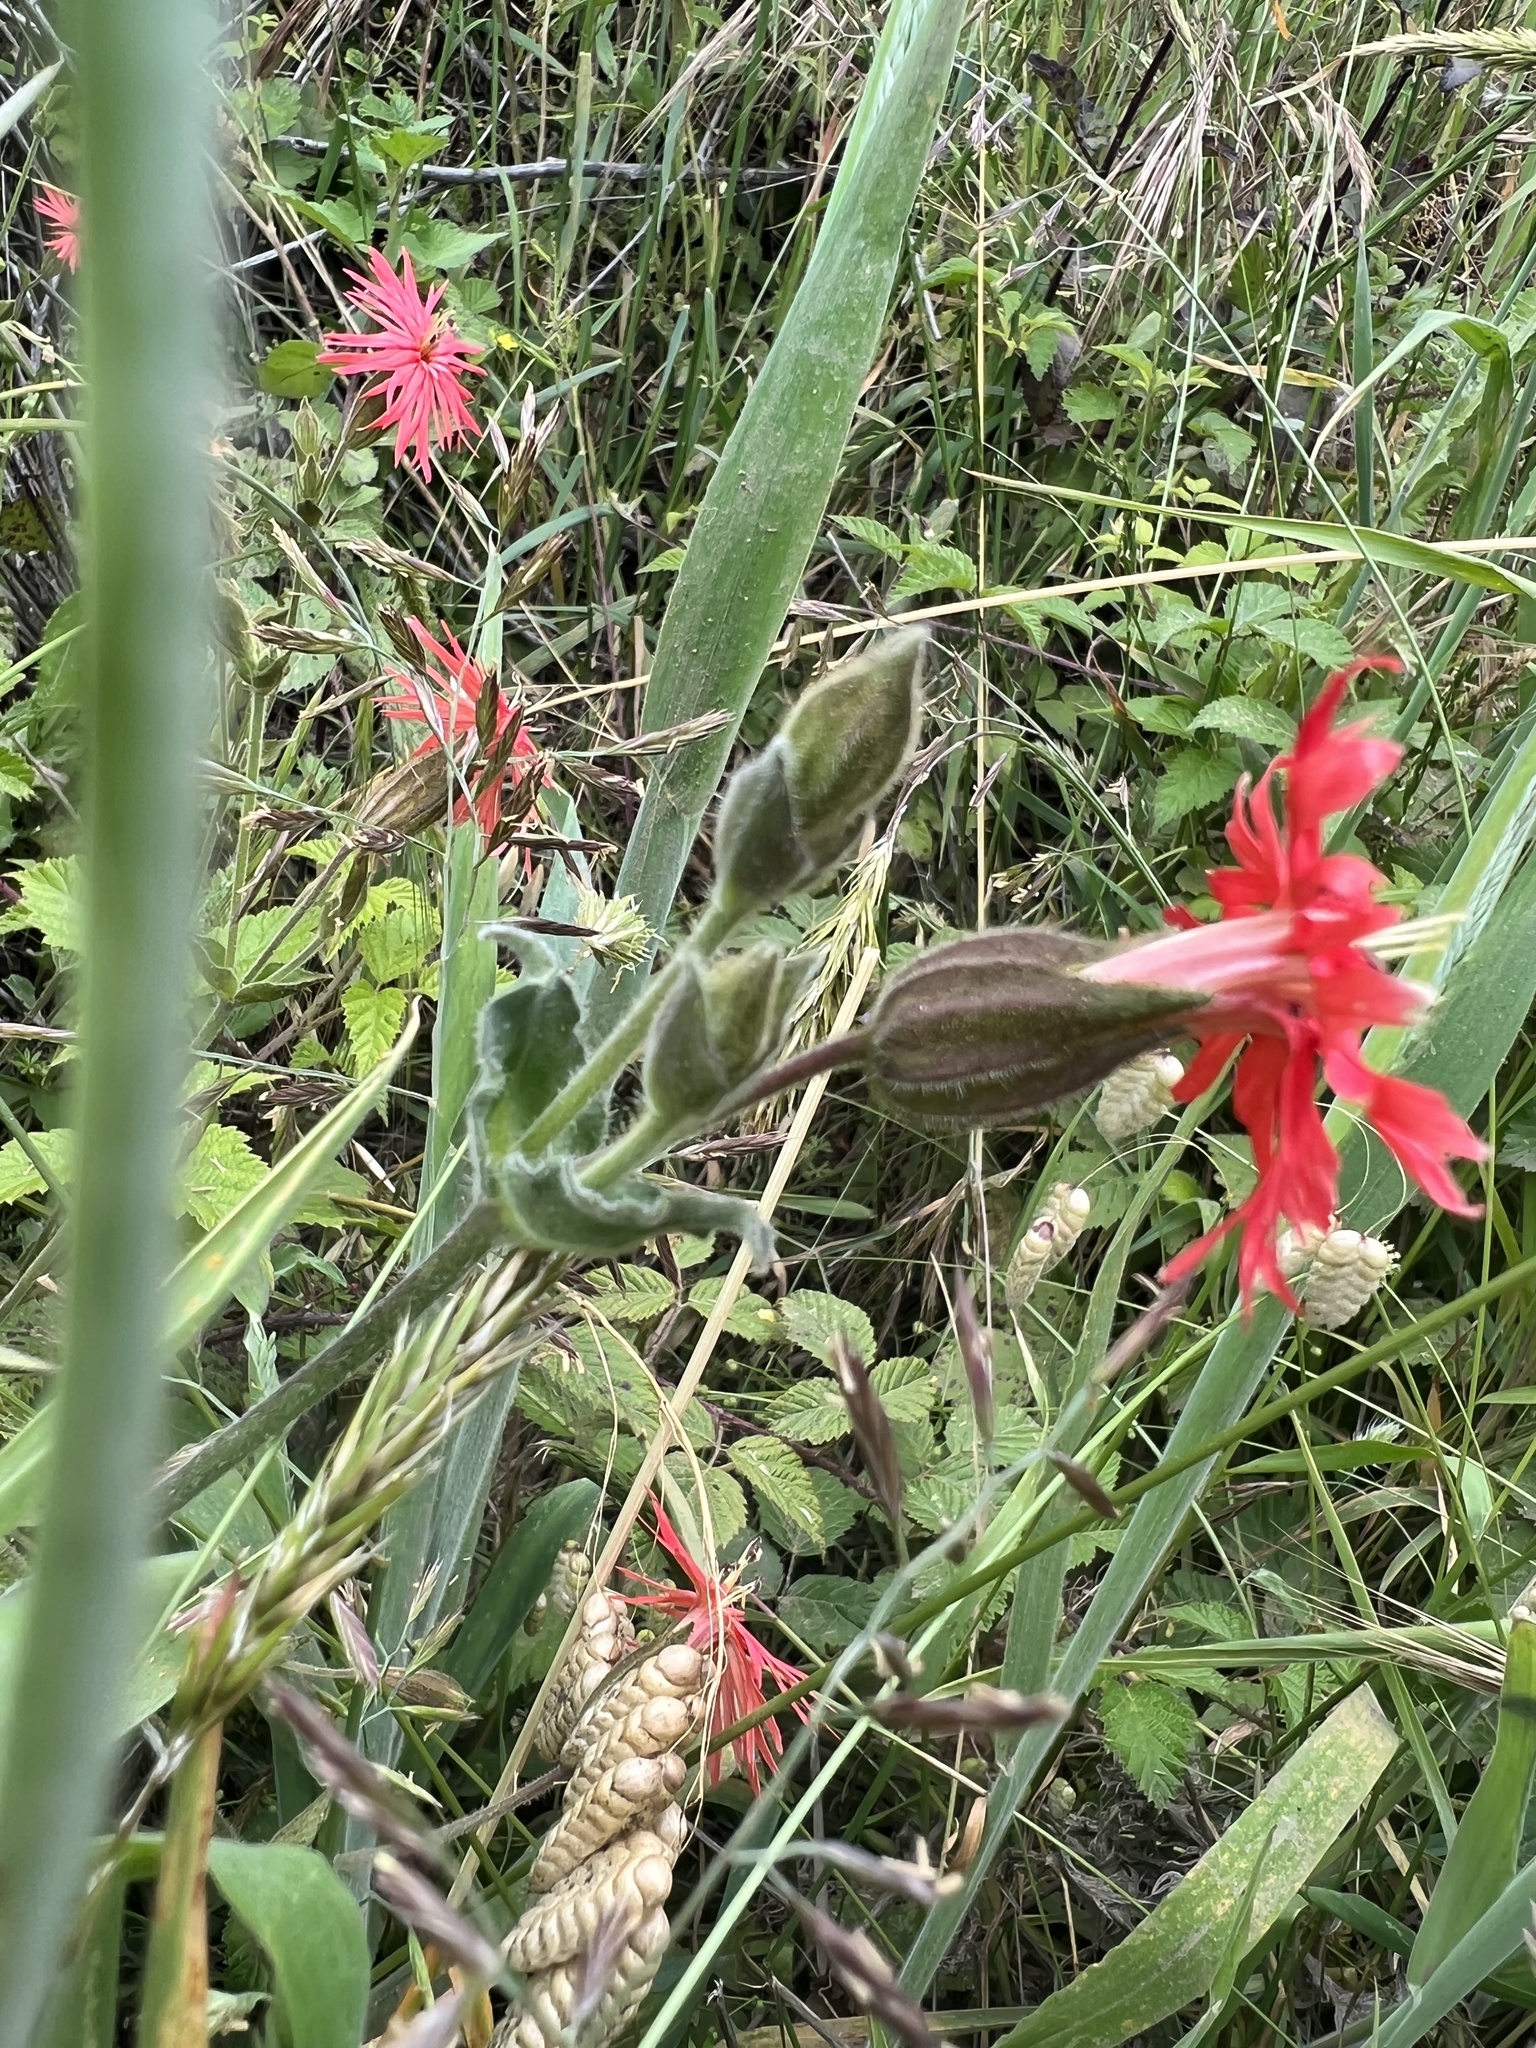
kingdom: Plantae
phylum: Tracheophyta
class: Magnoliopsida
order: Caryophyllales
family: Caryophyllaceae
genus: Silene
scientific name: Silene laciniata
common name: Indian-pink
